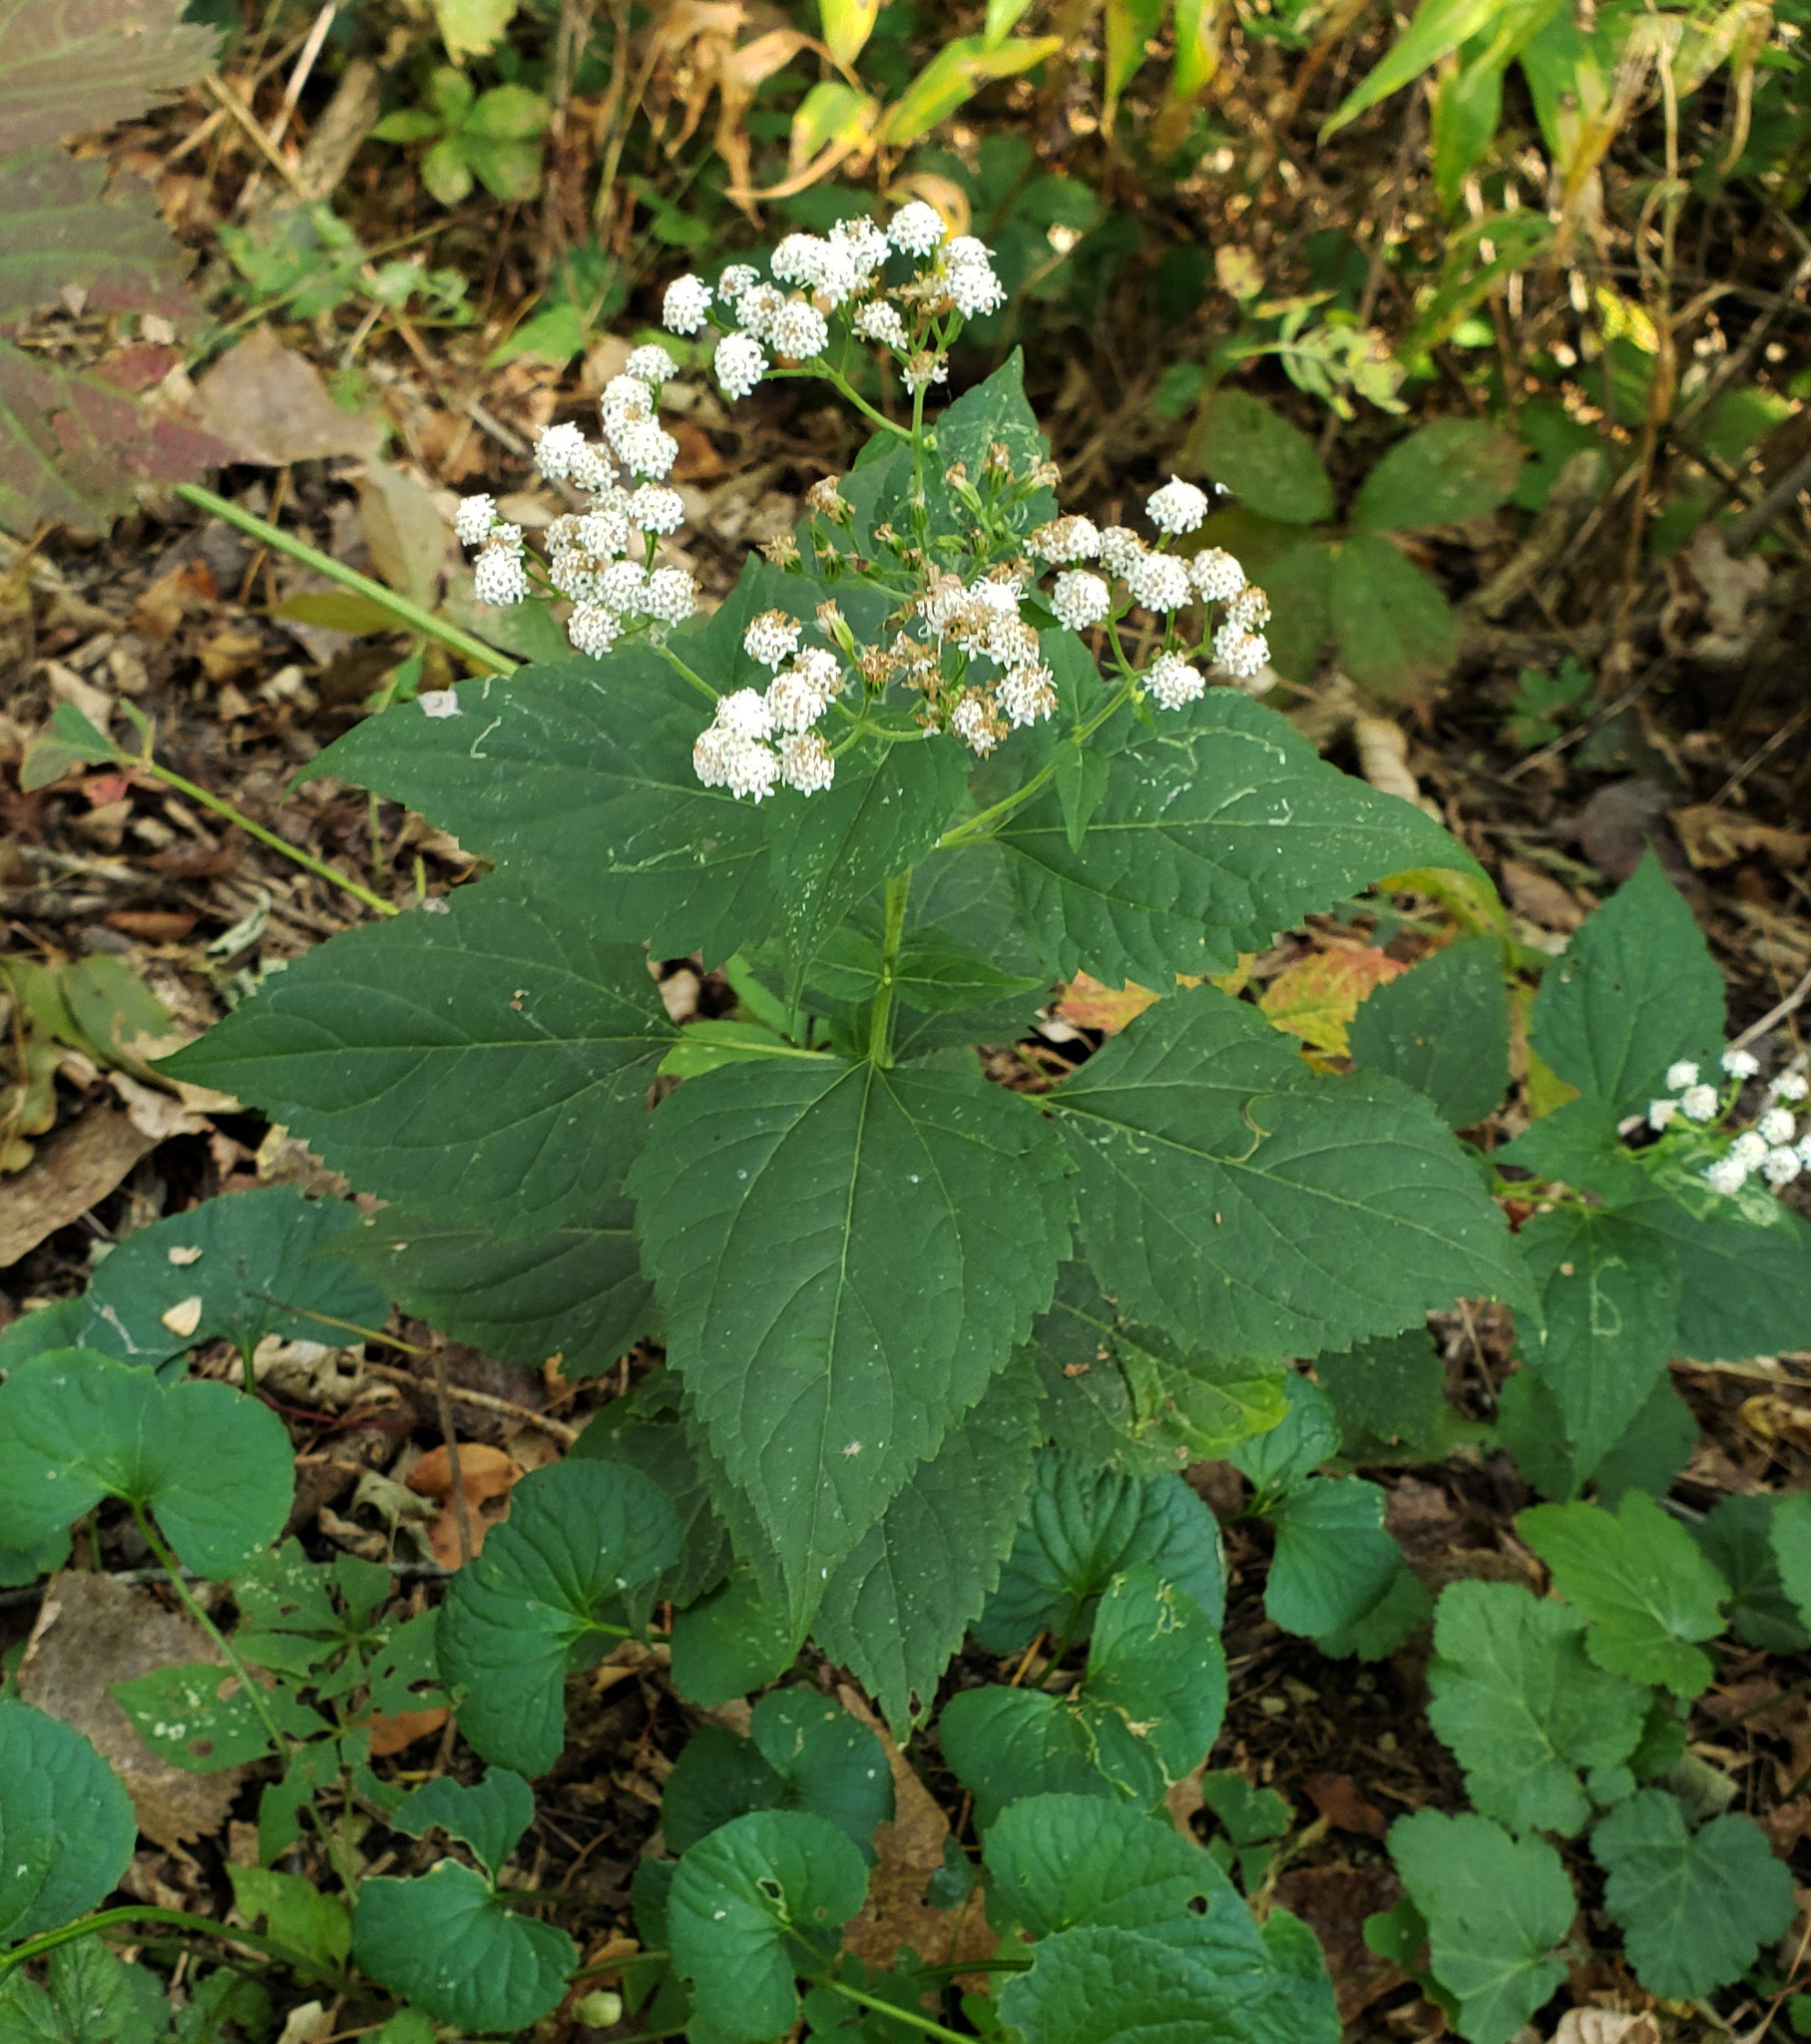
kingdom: Plantae
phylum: Tracheophyta
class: Magnoliopsida
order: Asterales
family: Asteraceae
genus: Ageratina
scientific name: Ageratina altissima
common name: White snakeroot
